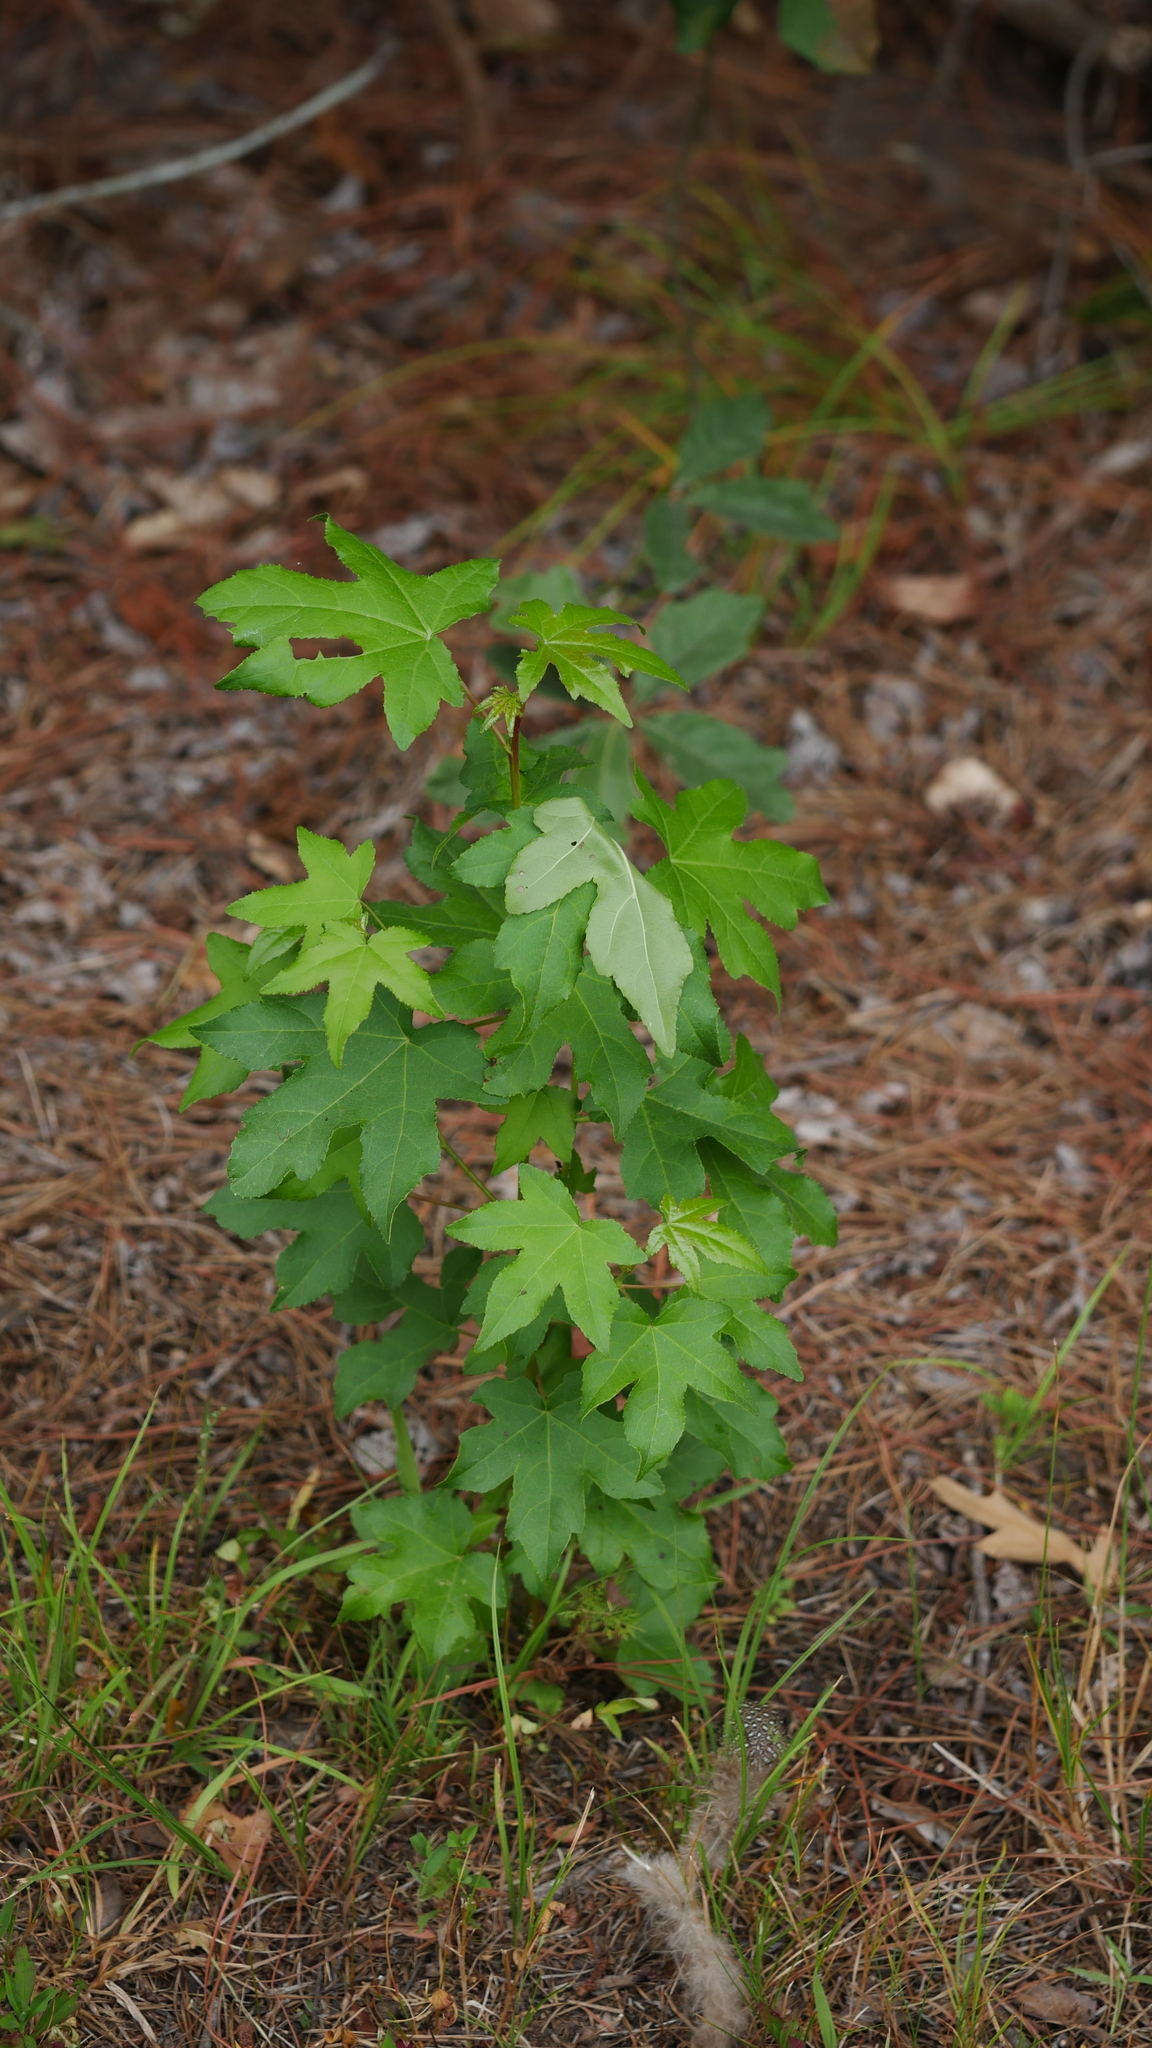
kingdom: Plantae
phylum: Tracheophyta
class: Magnoliopsida
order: Saxifragales
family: Altingiaceae
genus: Liquidambar
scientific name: Liquidambar styraciflua
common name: Sweet gum
